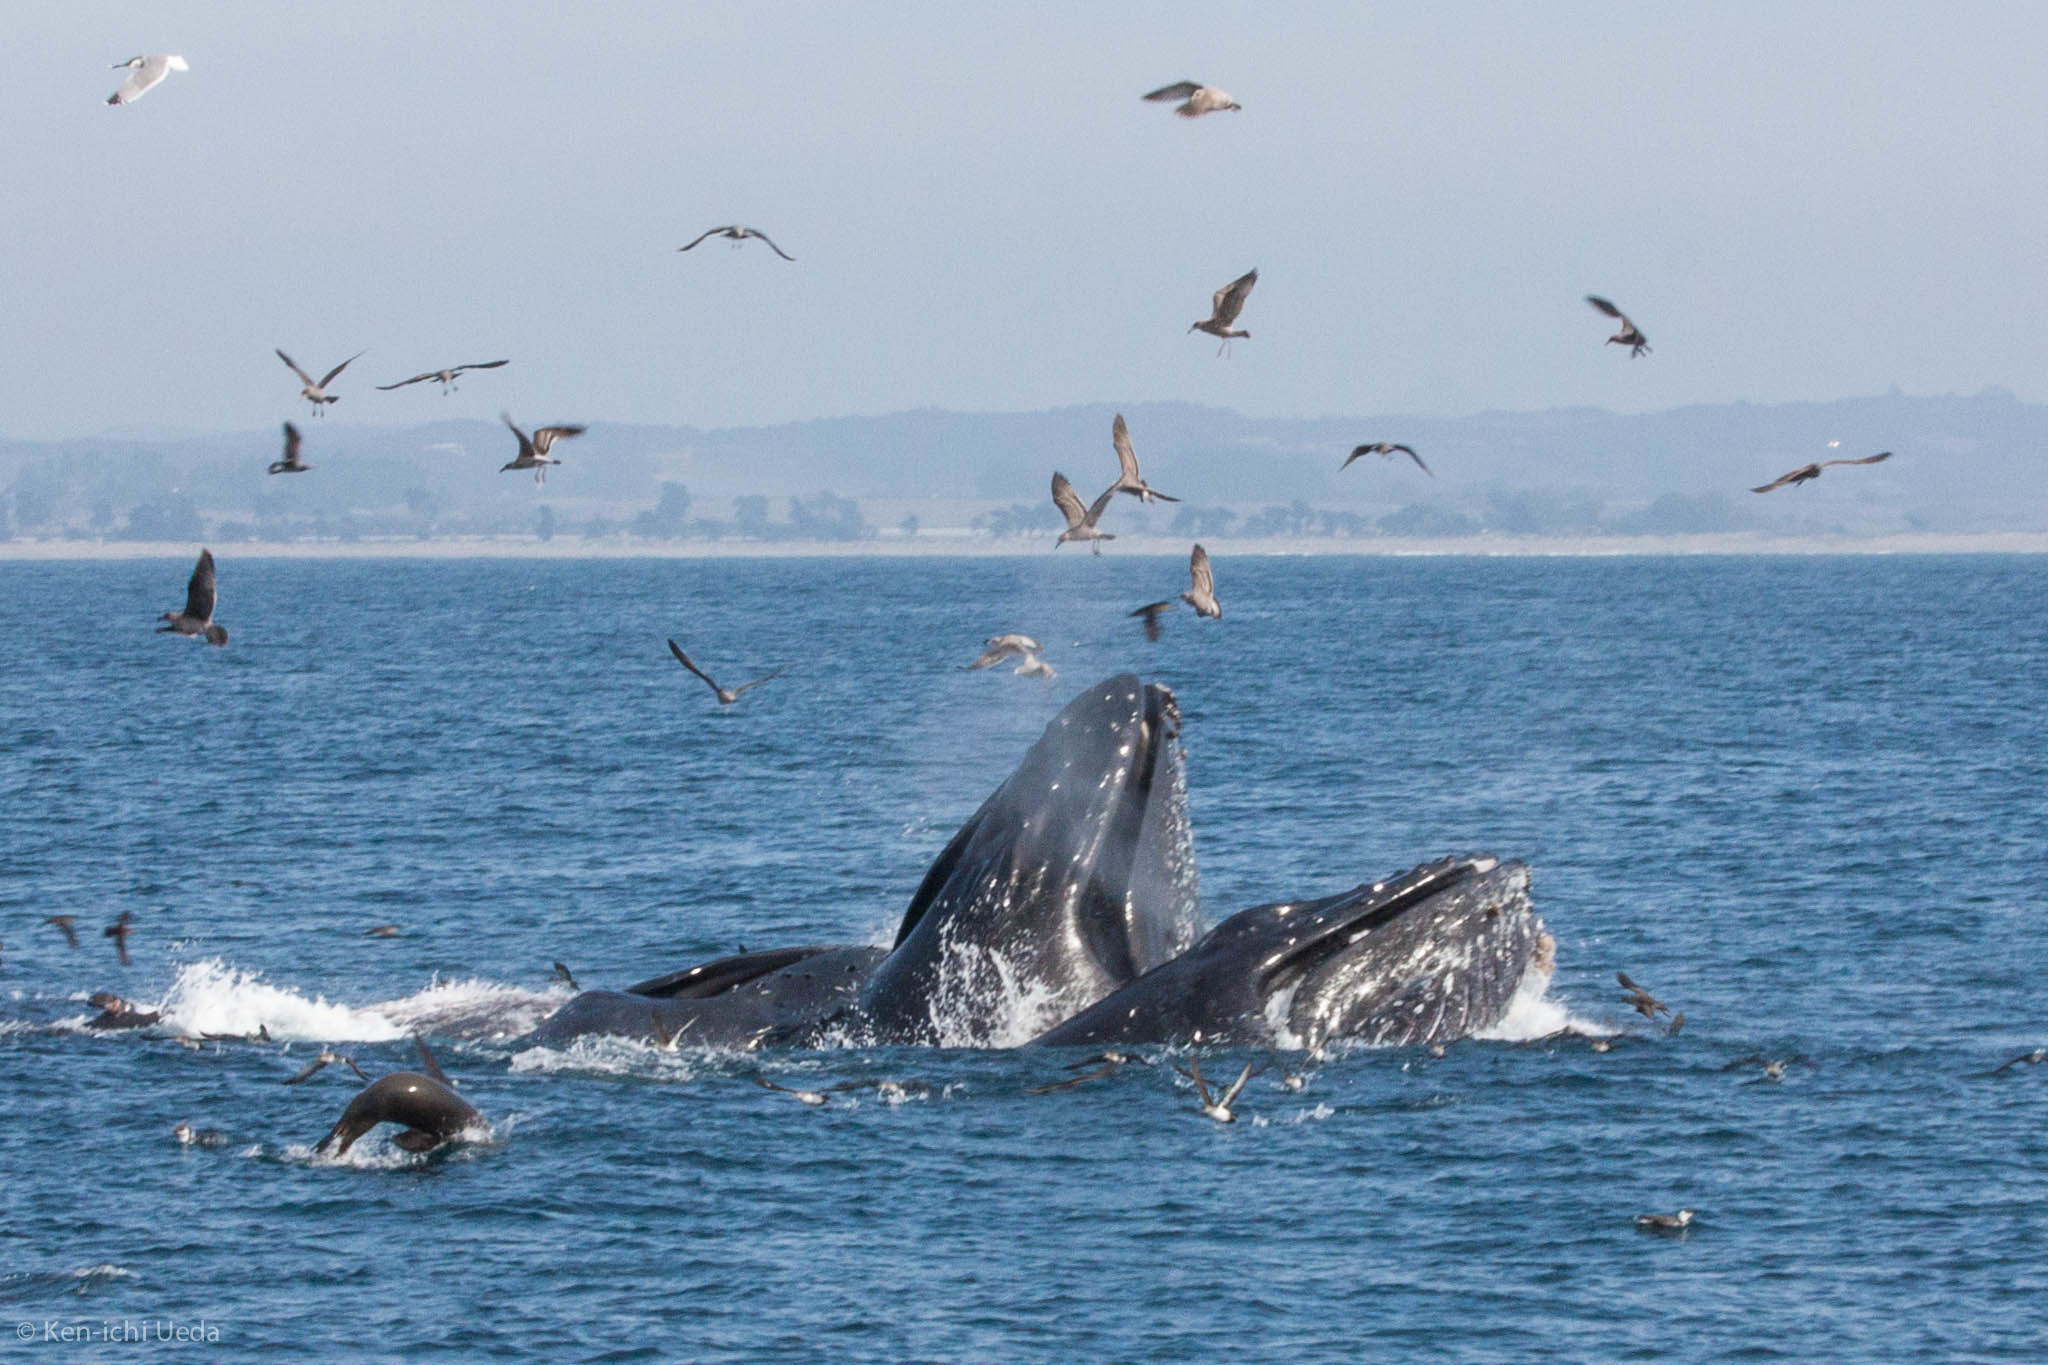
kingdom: Animalia
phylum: Chordata
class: Mammalia
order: Cetacea
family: Balaenopteridae
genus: Megaptera
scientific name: Megaptera novaeangliae
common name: Humpback whale
